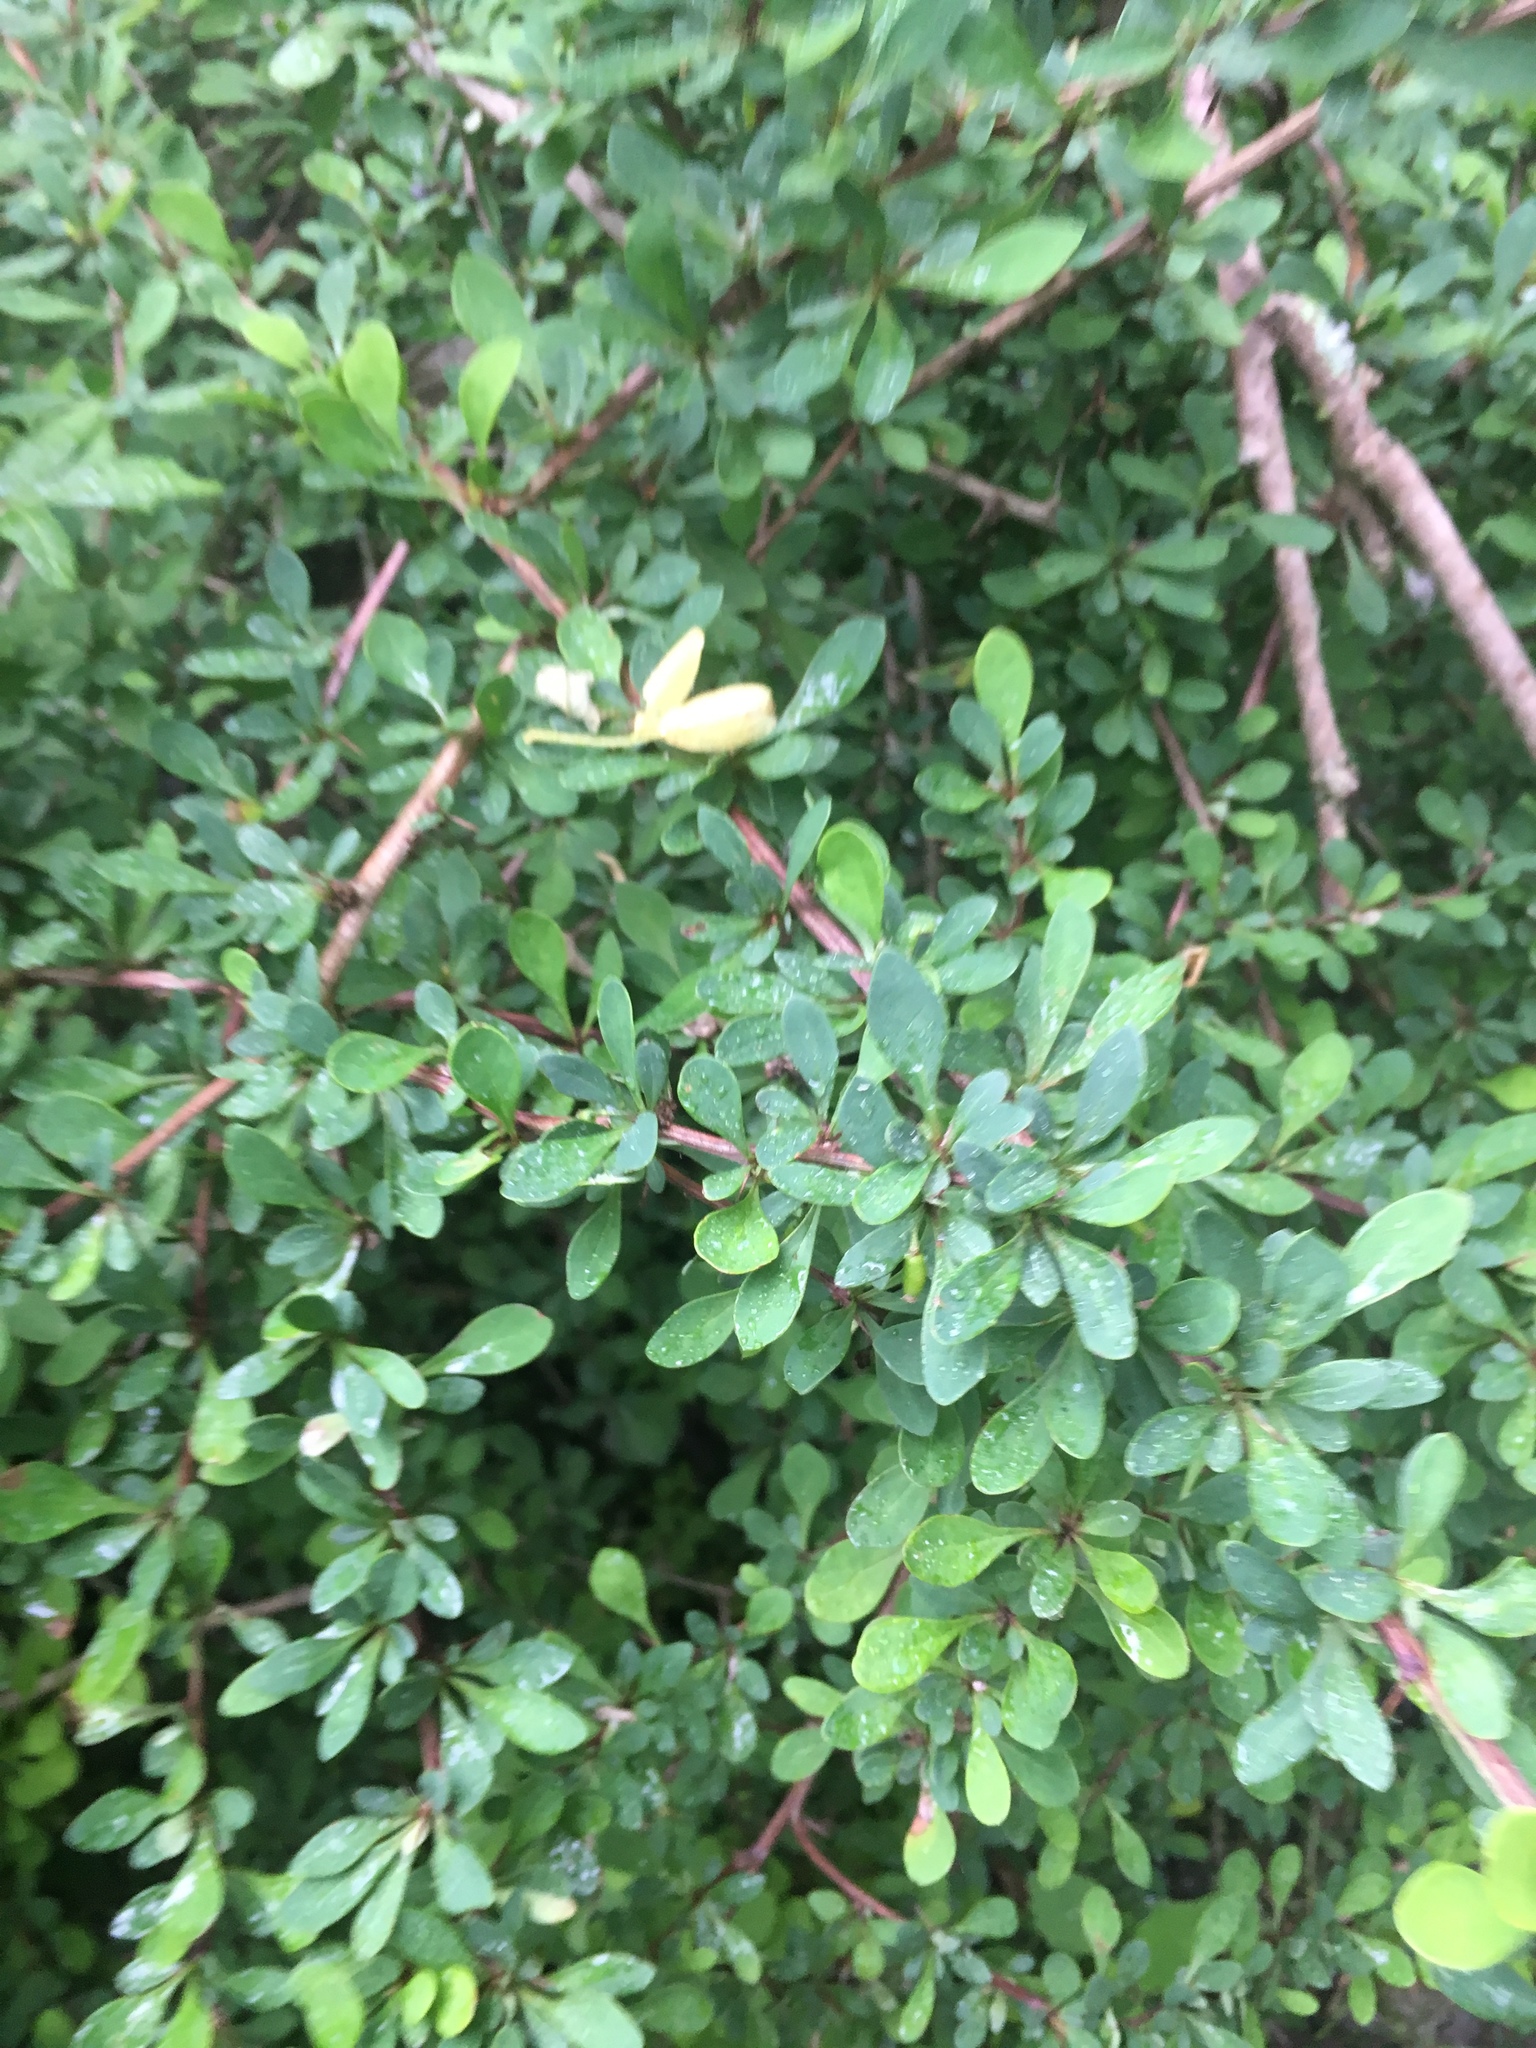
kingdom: Plantae
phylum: Tracheophyta
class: Magnoliopsida
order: Ranunculales
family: Berberidaceae
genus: Berberis
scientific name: Berberis thunbergii
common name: Japanese barberry
